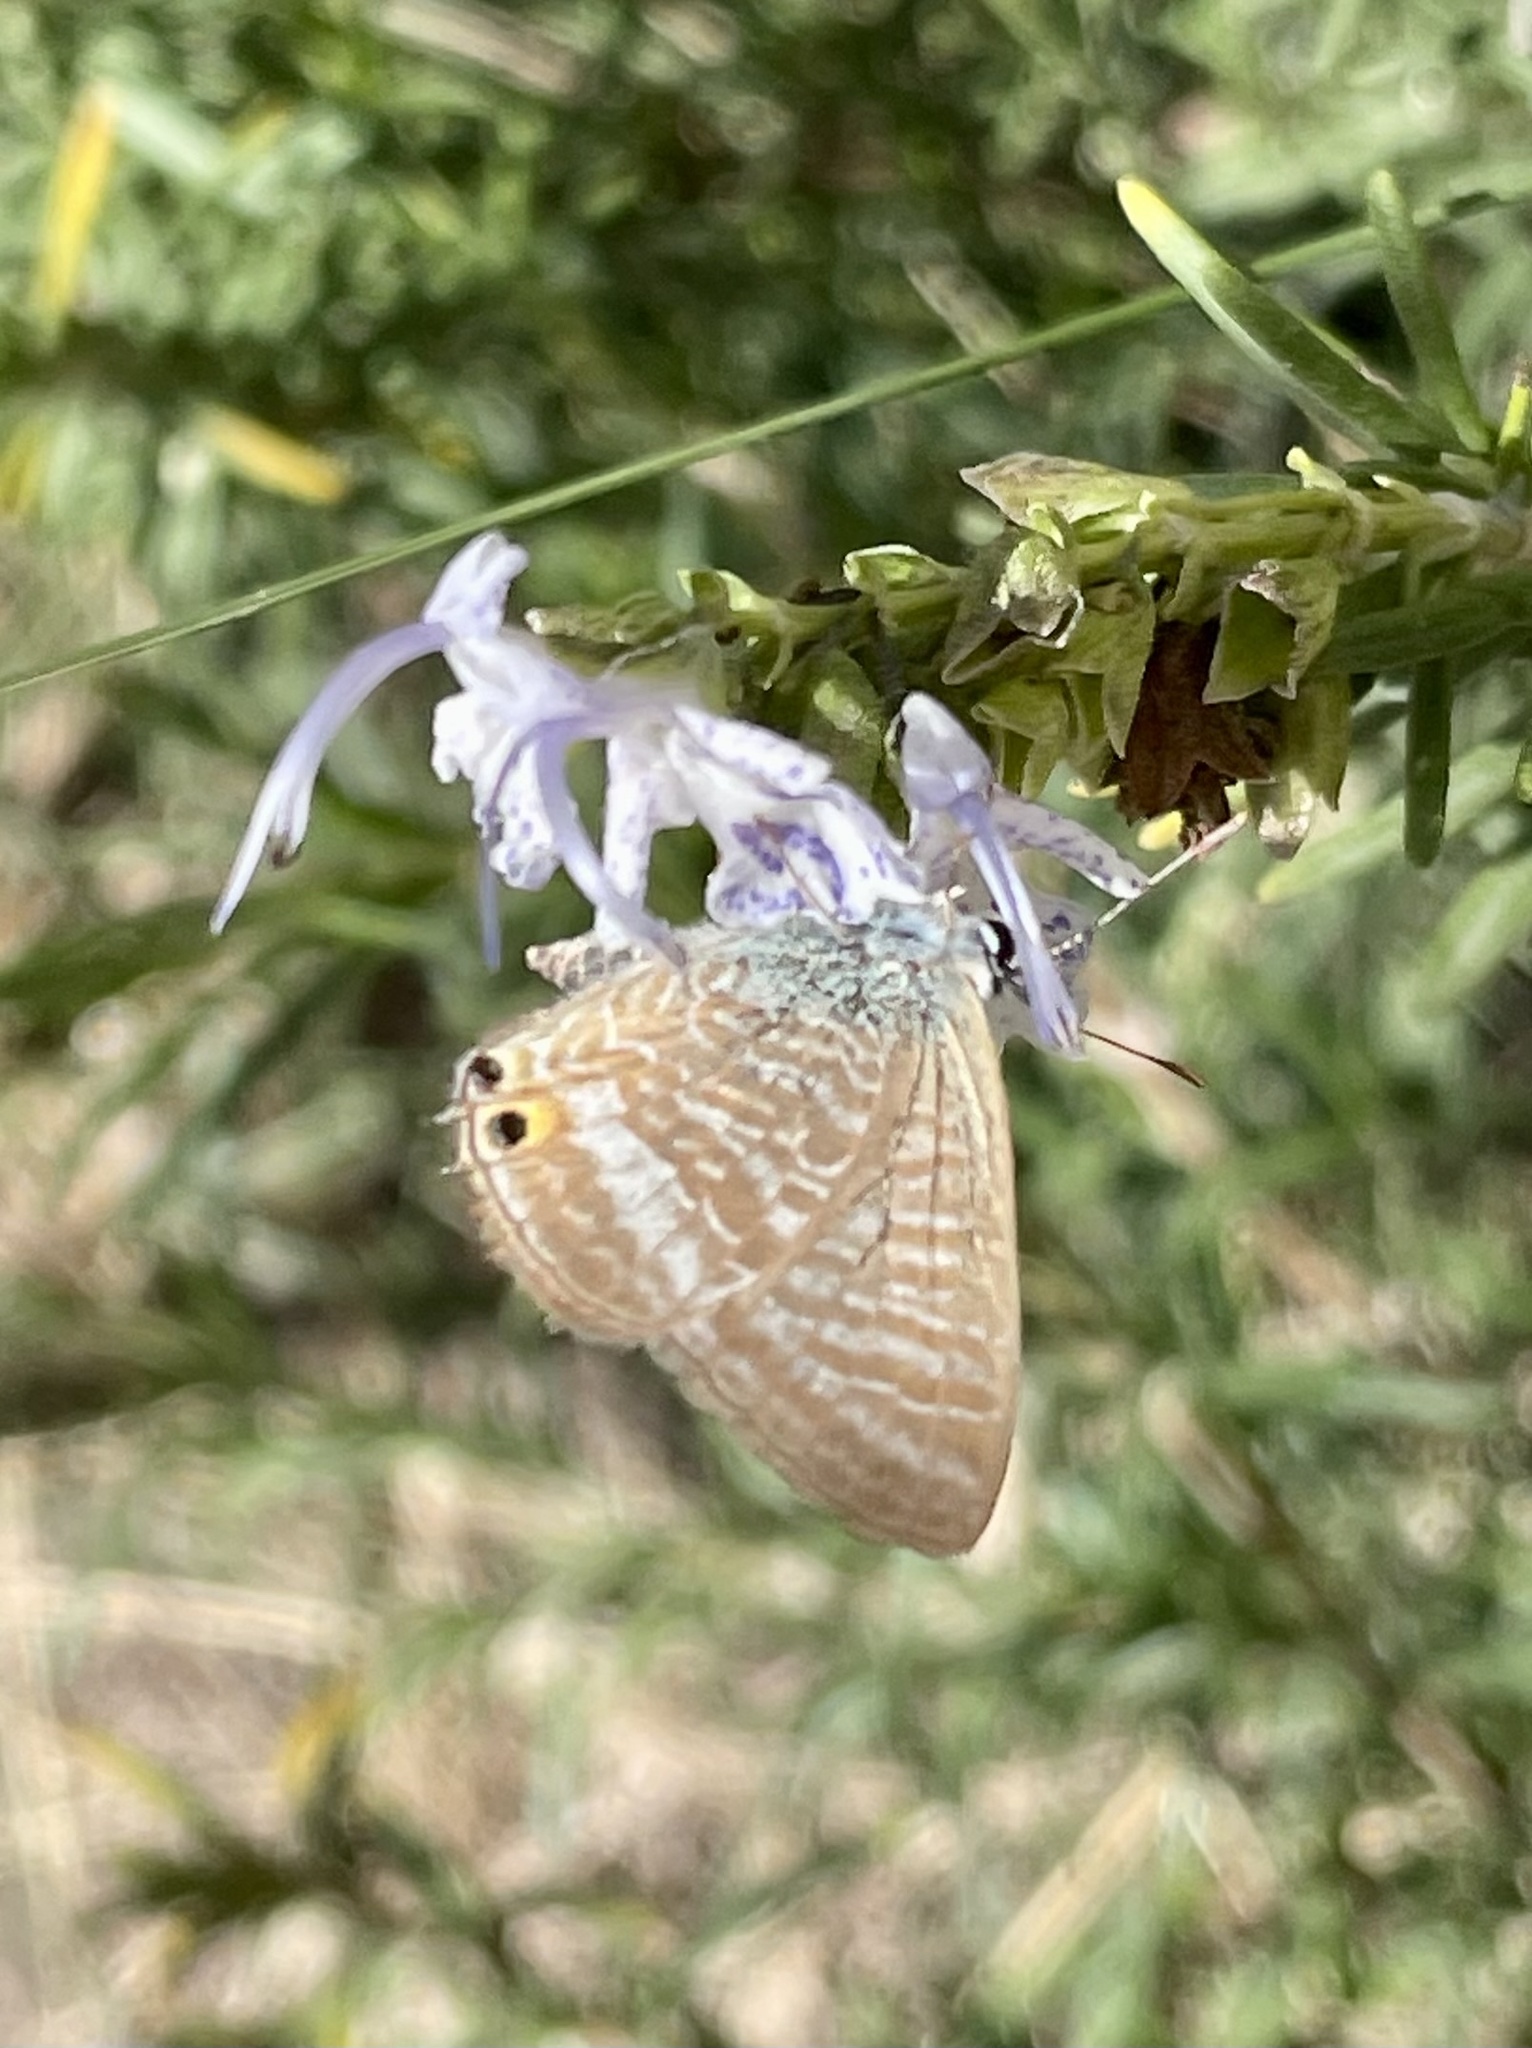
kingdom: Animalia
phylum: Arthropoda
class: Insecta
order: Lepidoptera
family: Lycaenidae
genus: Lampides
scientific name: Lampides boeticus
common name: Long-tailed blue
